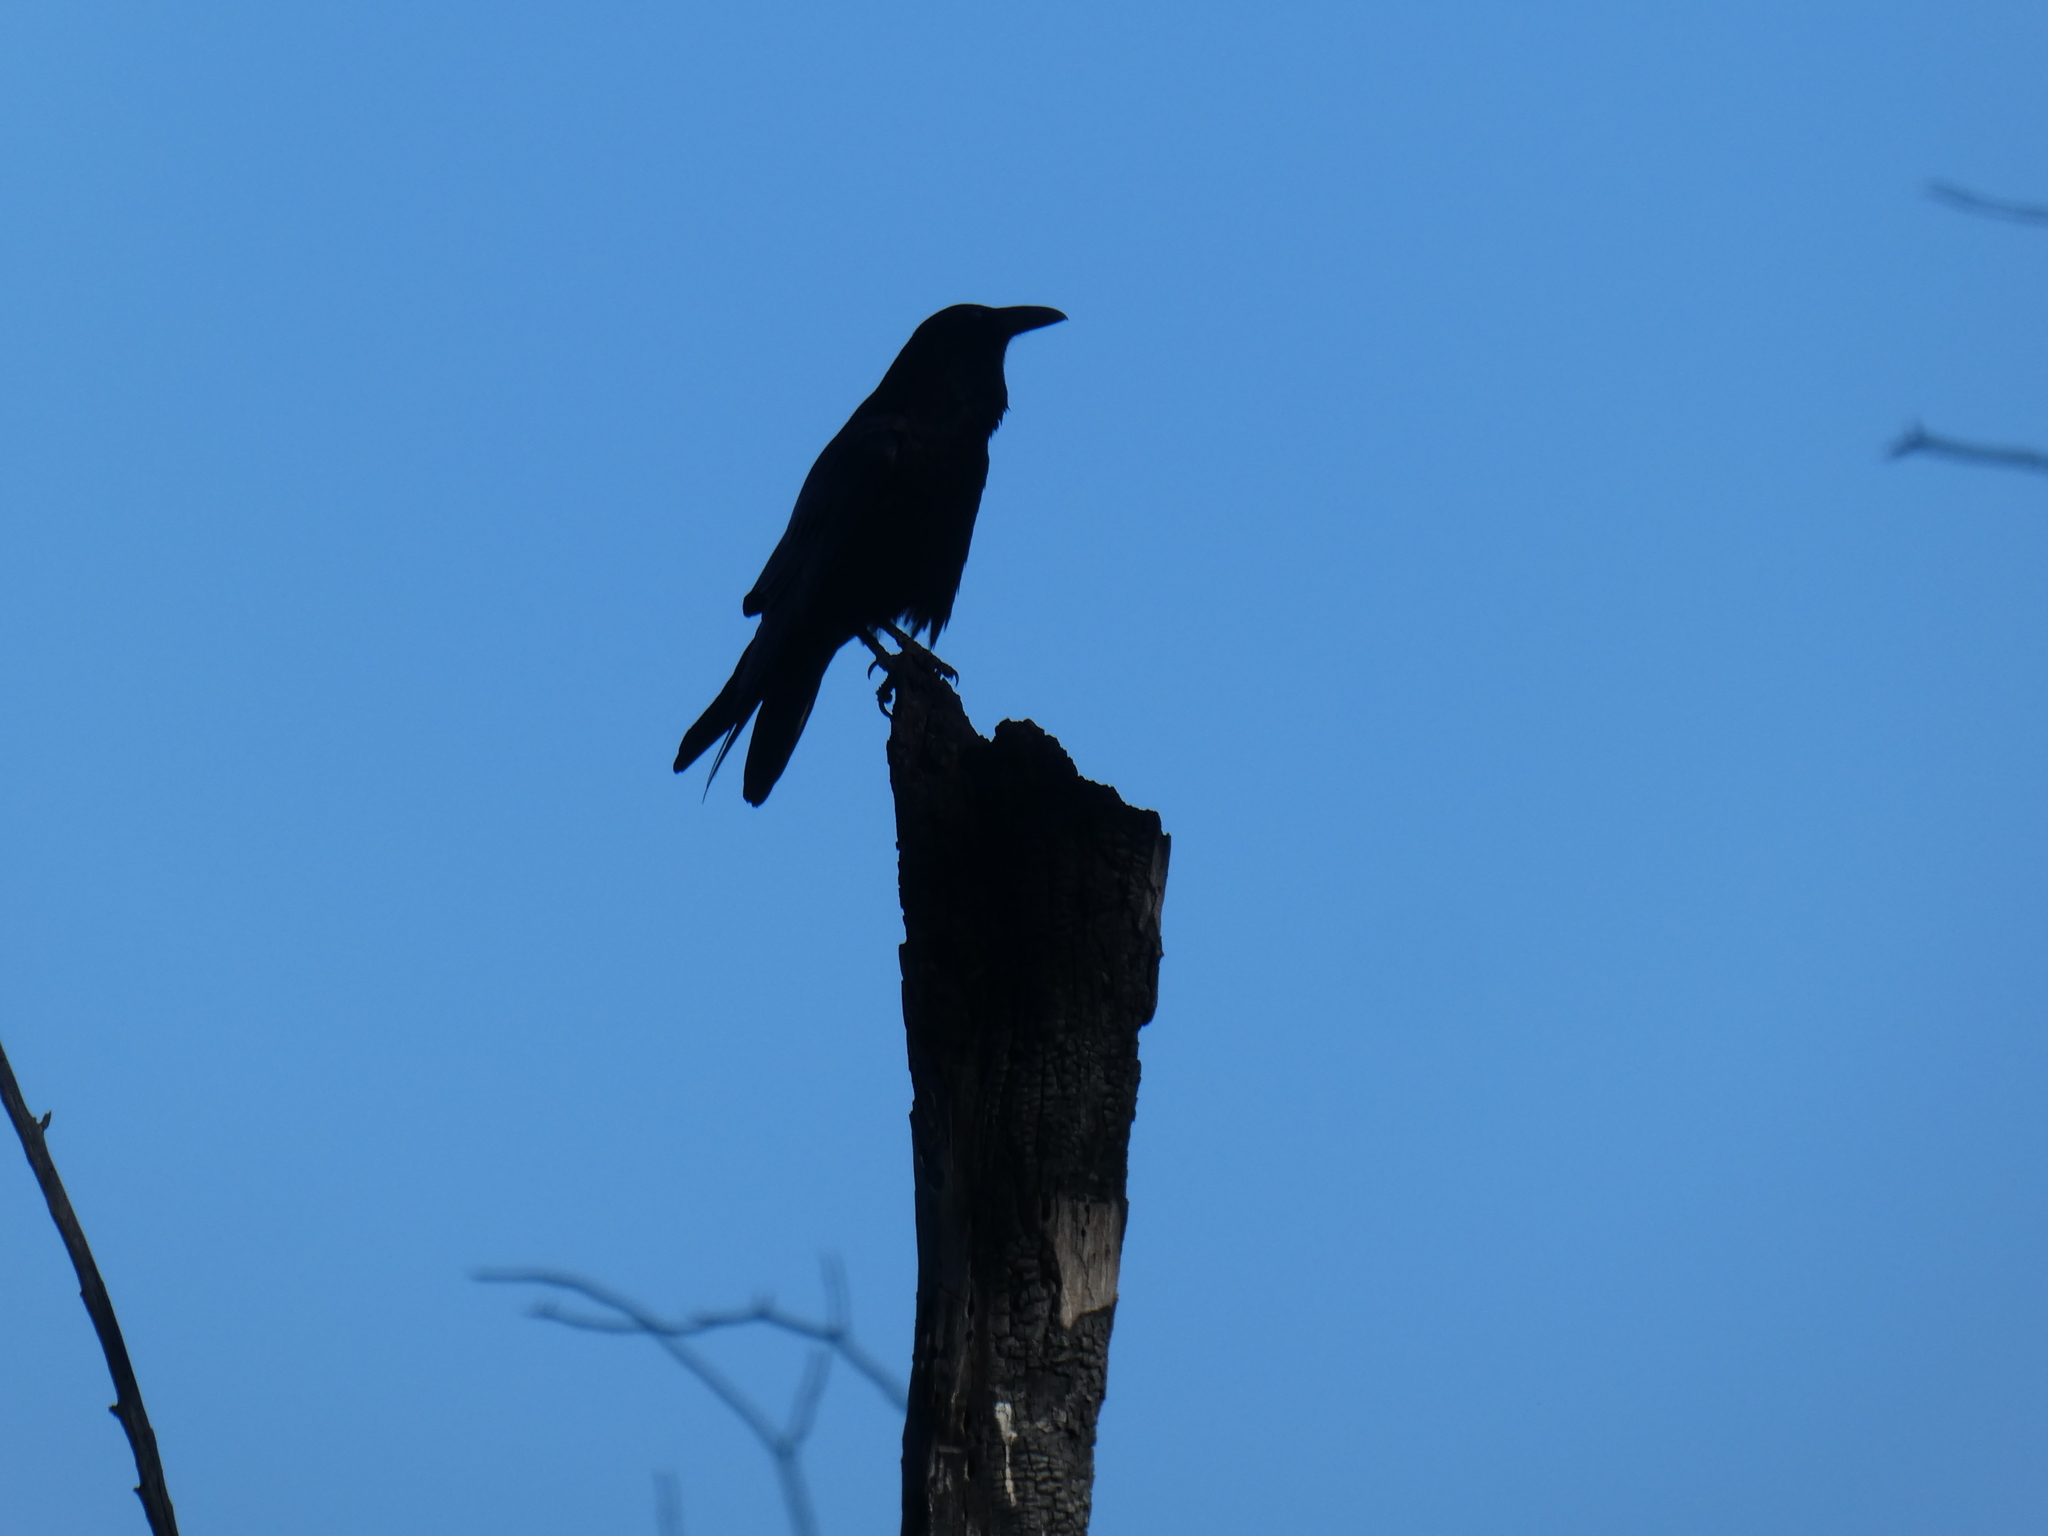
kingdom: Animalia
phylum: Chordata
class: Aves
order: Passeriformes
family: Corvidae
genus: Corvus
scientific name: Corvus corax
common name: Common raven
